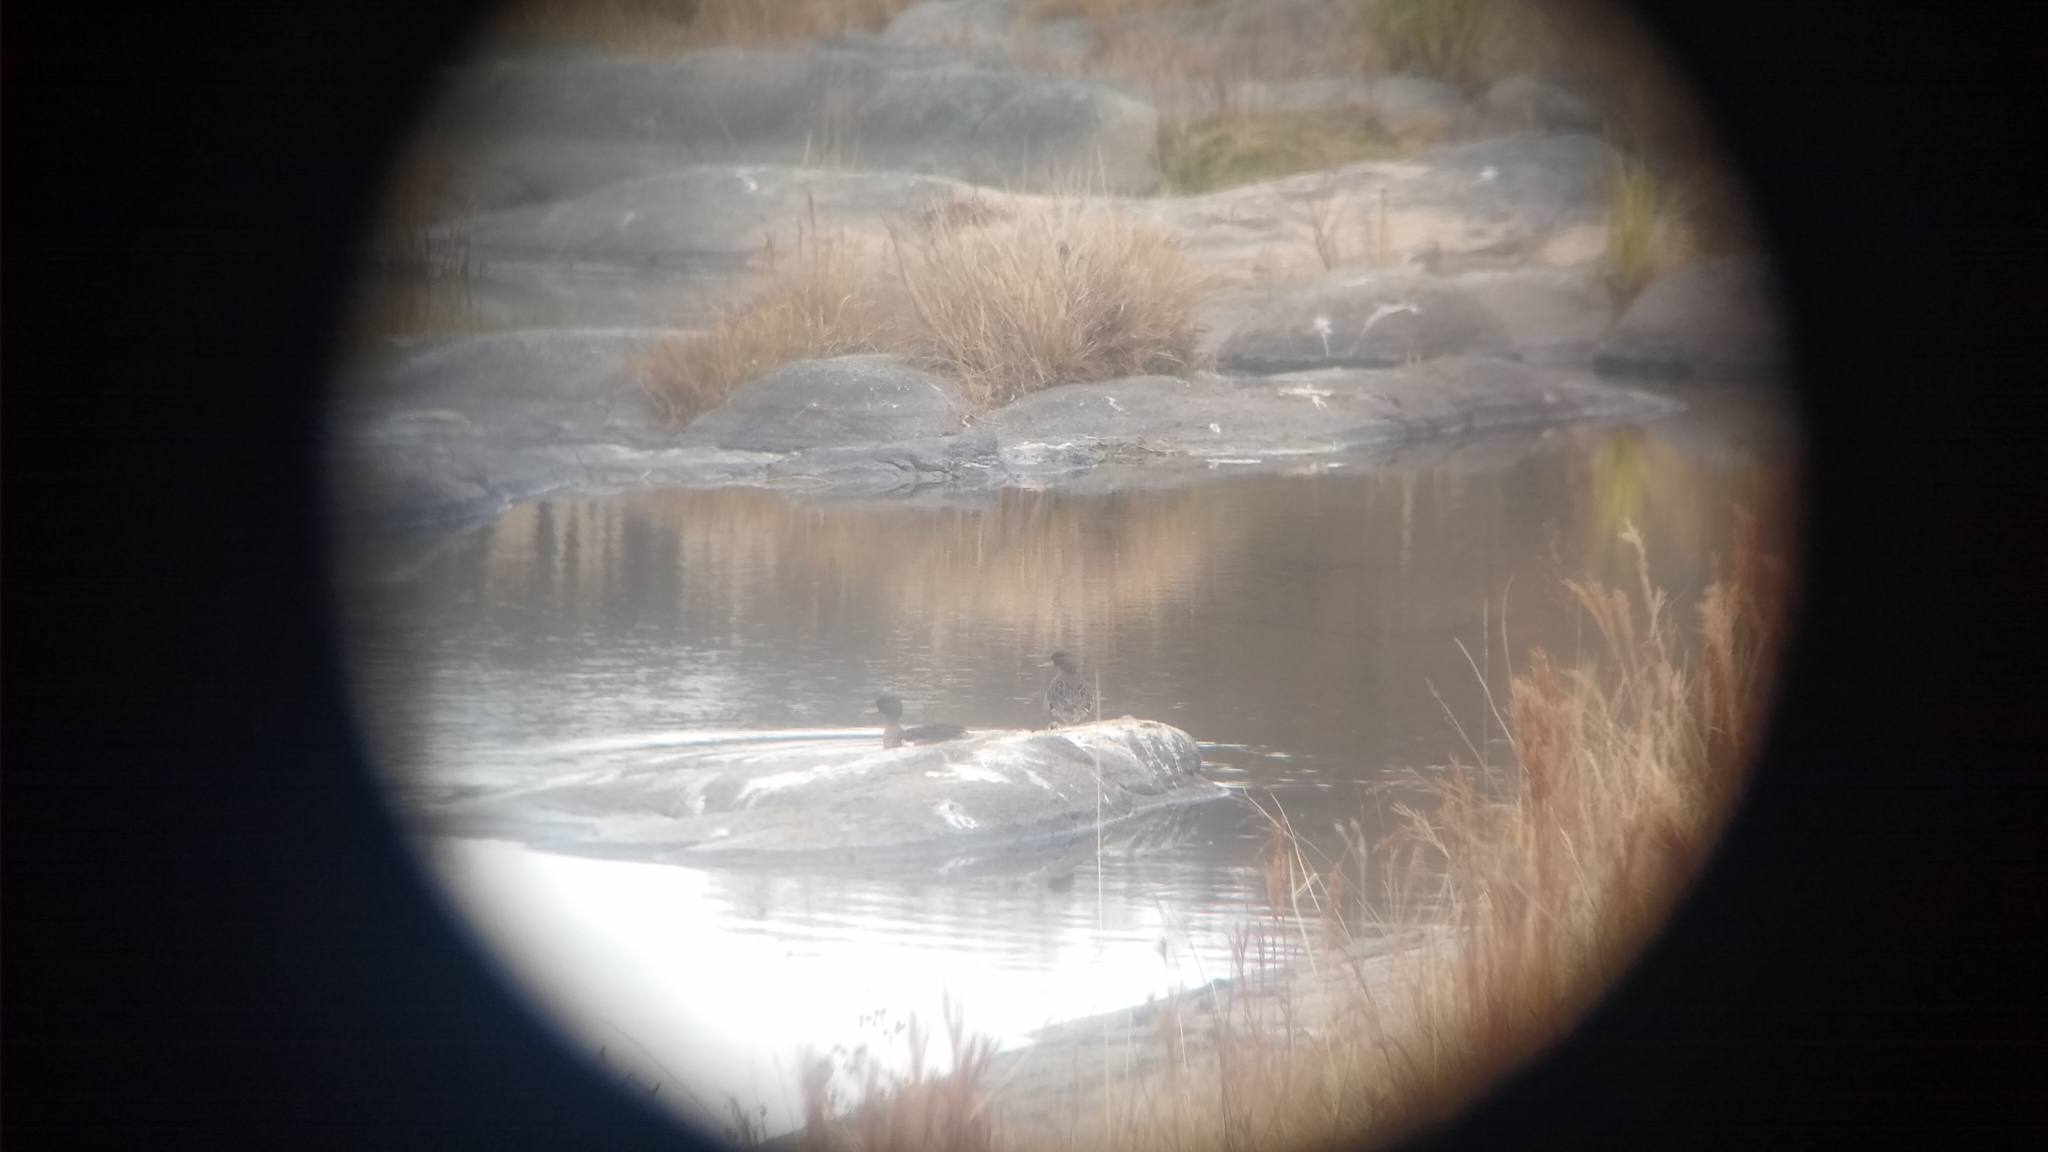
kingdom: Animalia
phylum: Chordata
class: Aves
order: Anseriformes
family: Anatidae
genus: Anas
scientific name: Anas flavirostris
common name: Yellow-billed teal
